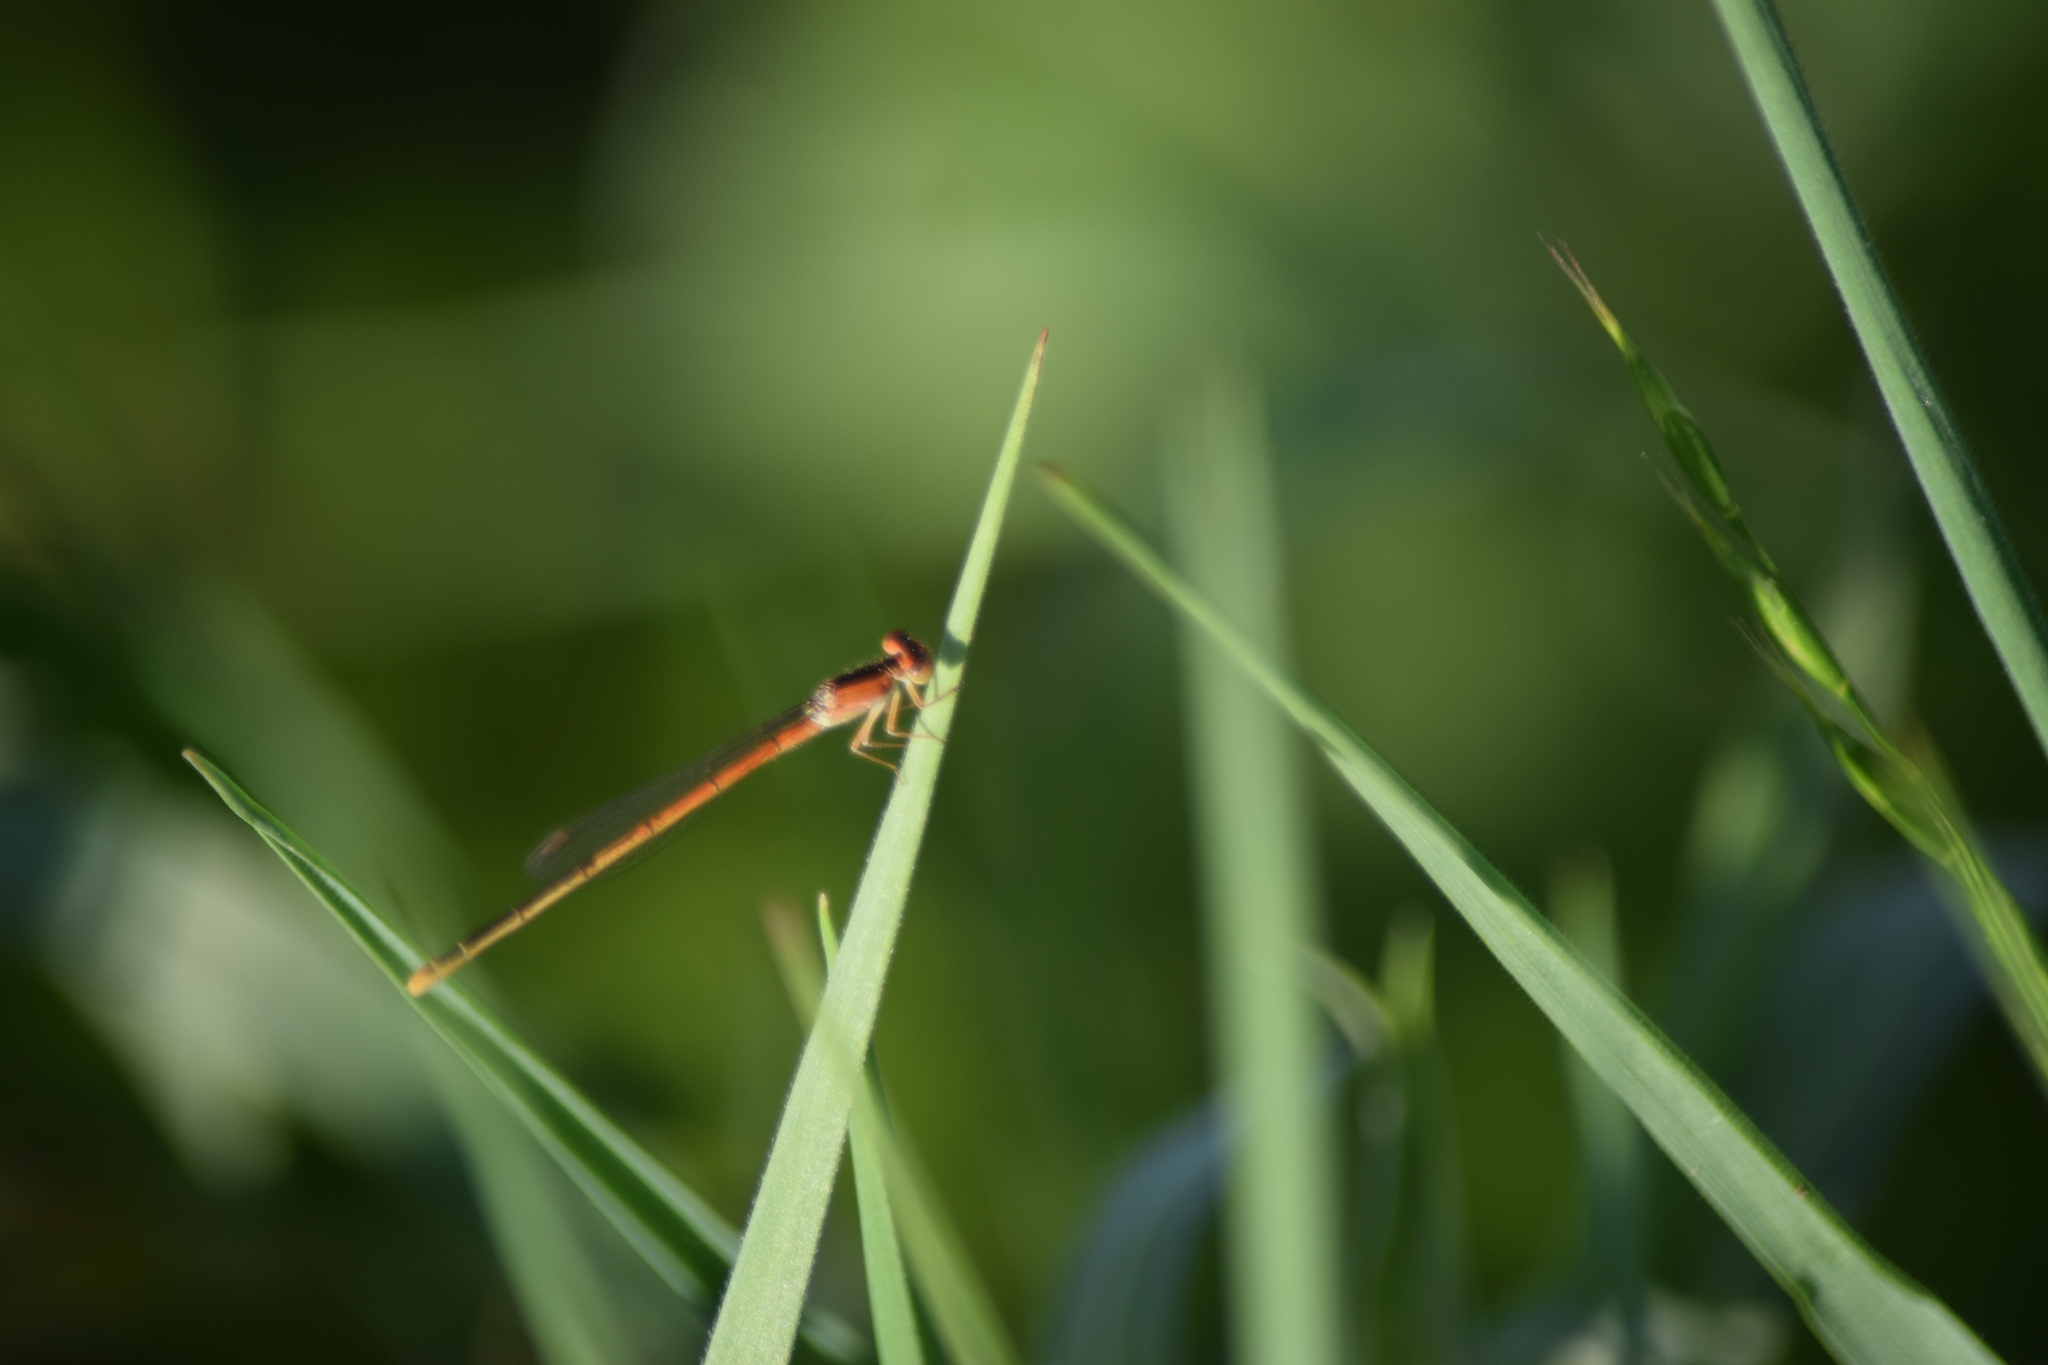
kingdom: Animalia
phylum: Arthropoda
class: Insecta
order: Odonata
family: Coenagrionidae
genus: Ischnura
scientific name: Ischnura hastata
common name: Citrine forktail
